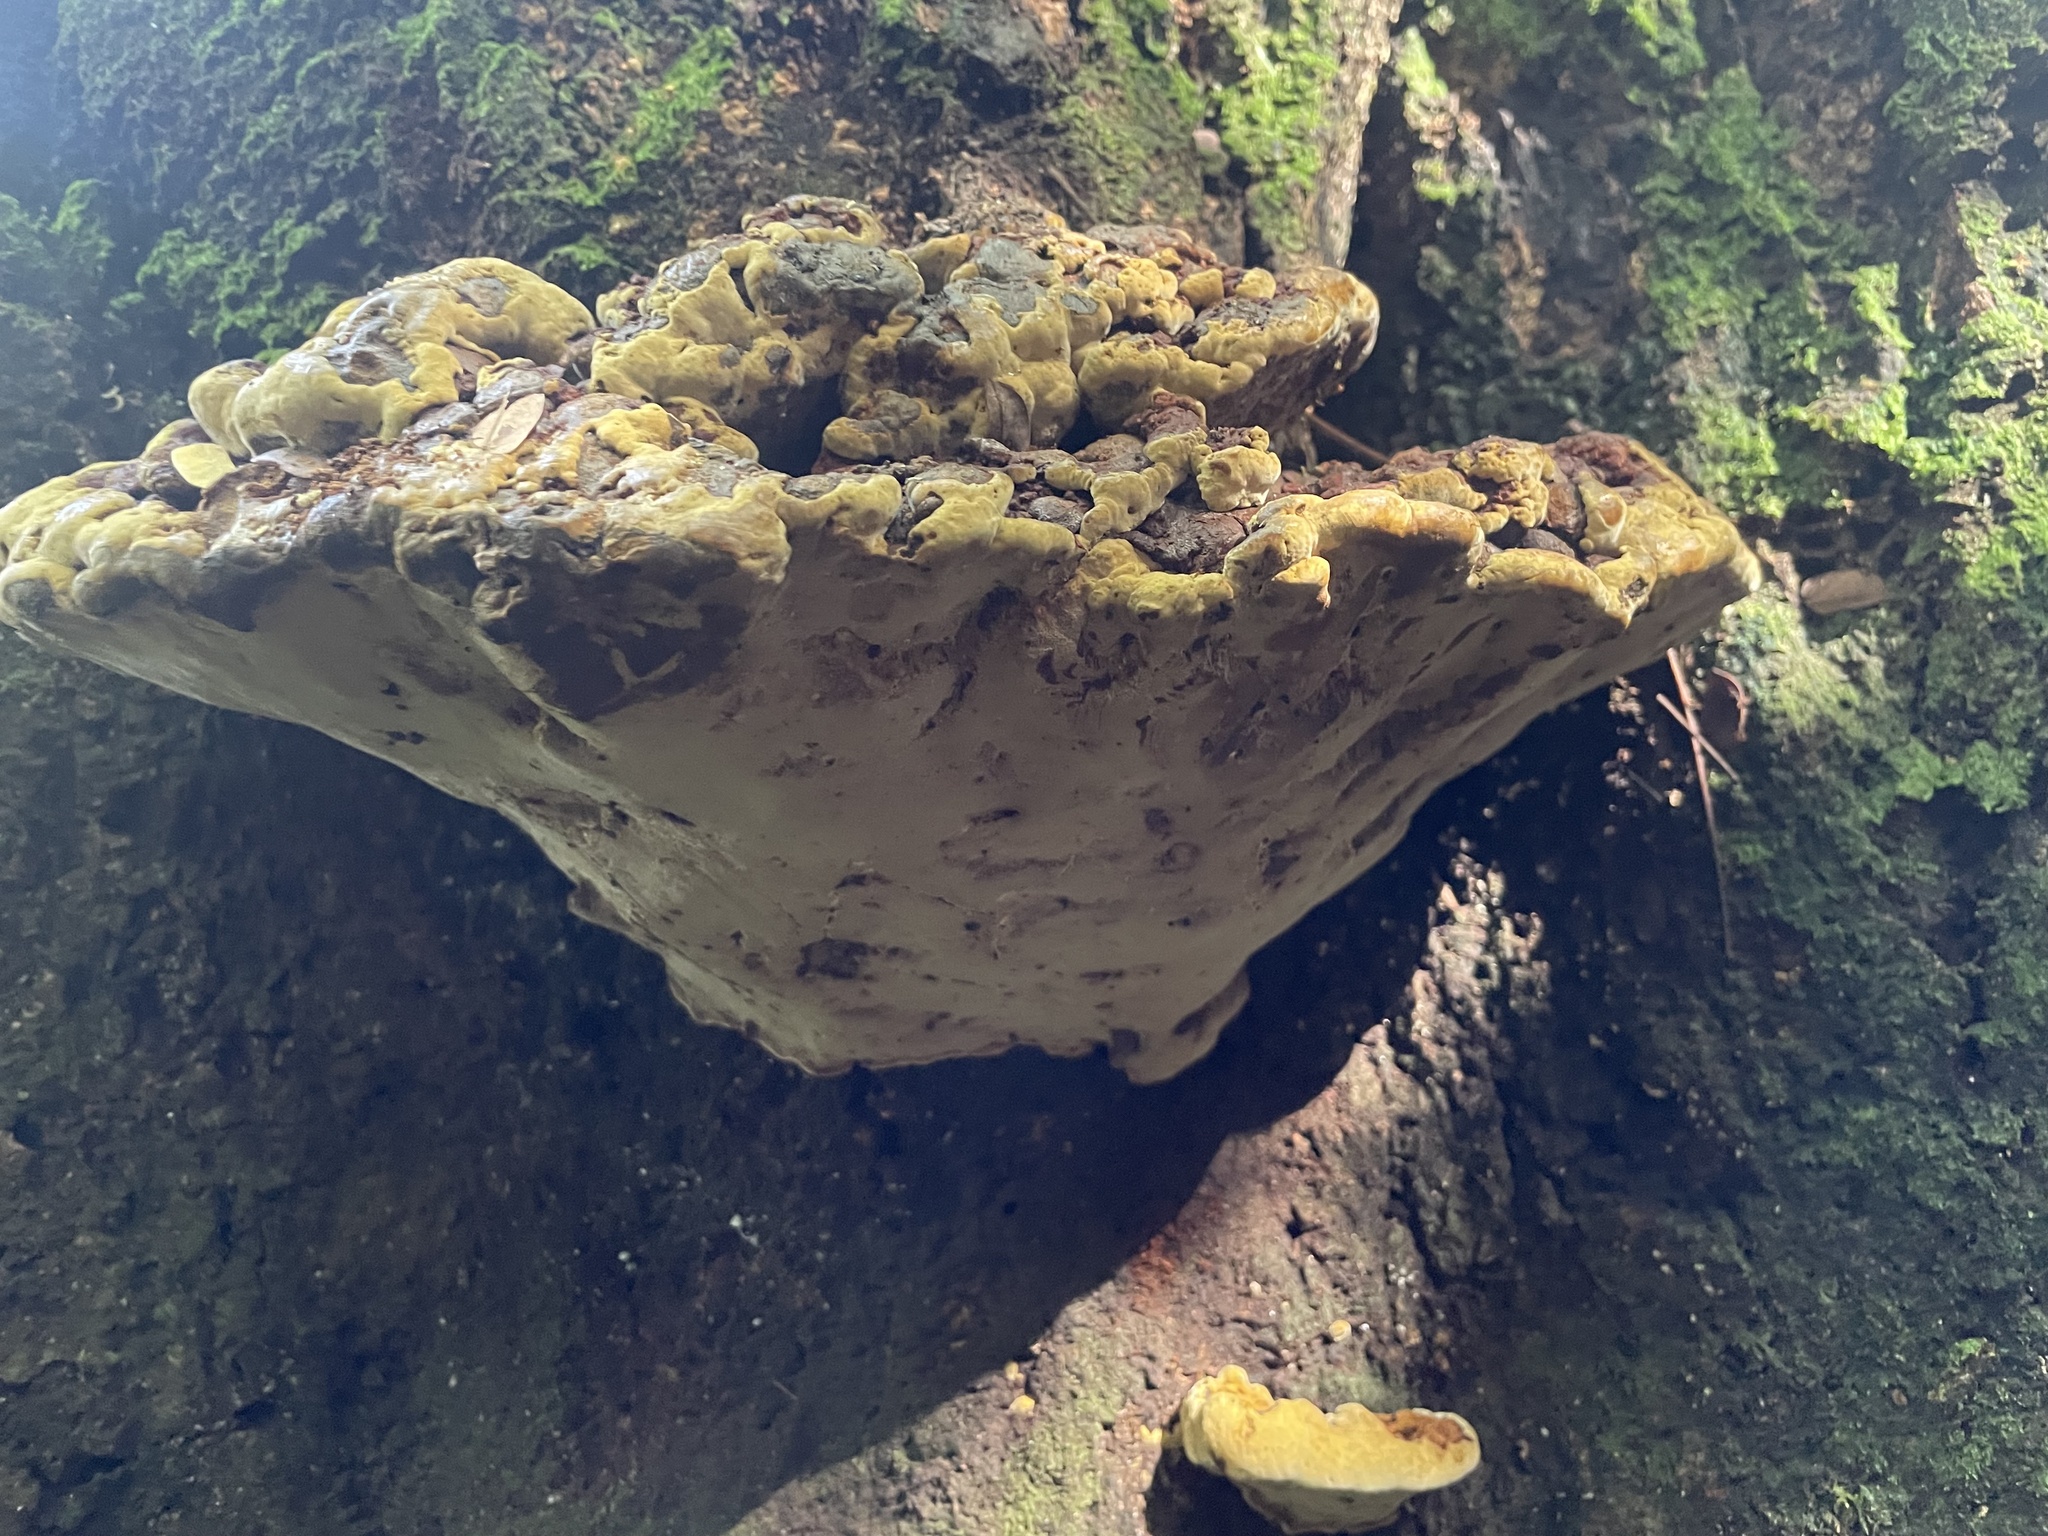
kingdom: Fungi
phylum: Basidiomycota
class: Agaricomycetes
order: Hymenochaetales
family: Hymenochaetaceae
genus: Phellinus
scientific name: Phellinus gilvus
